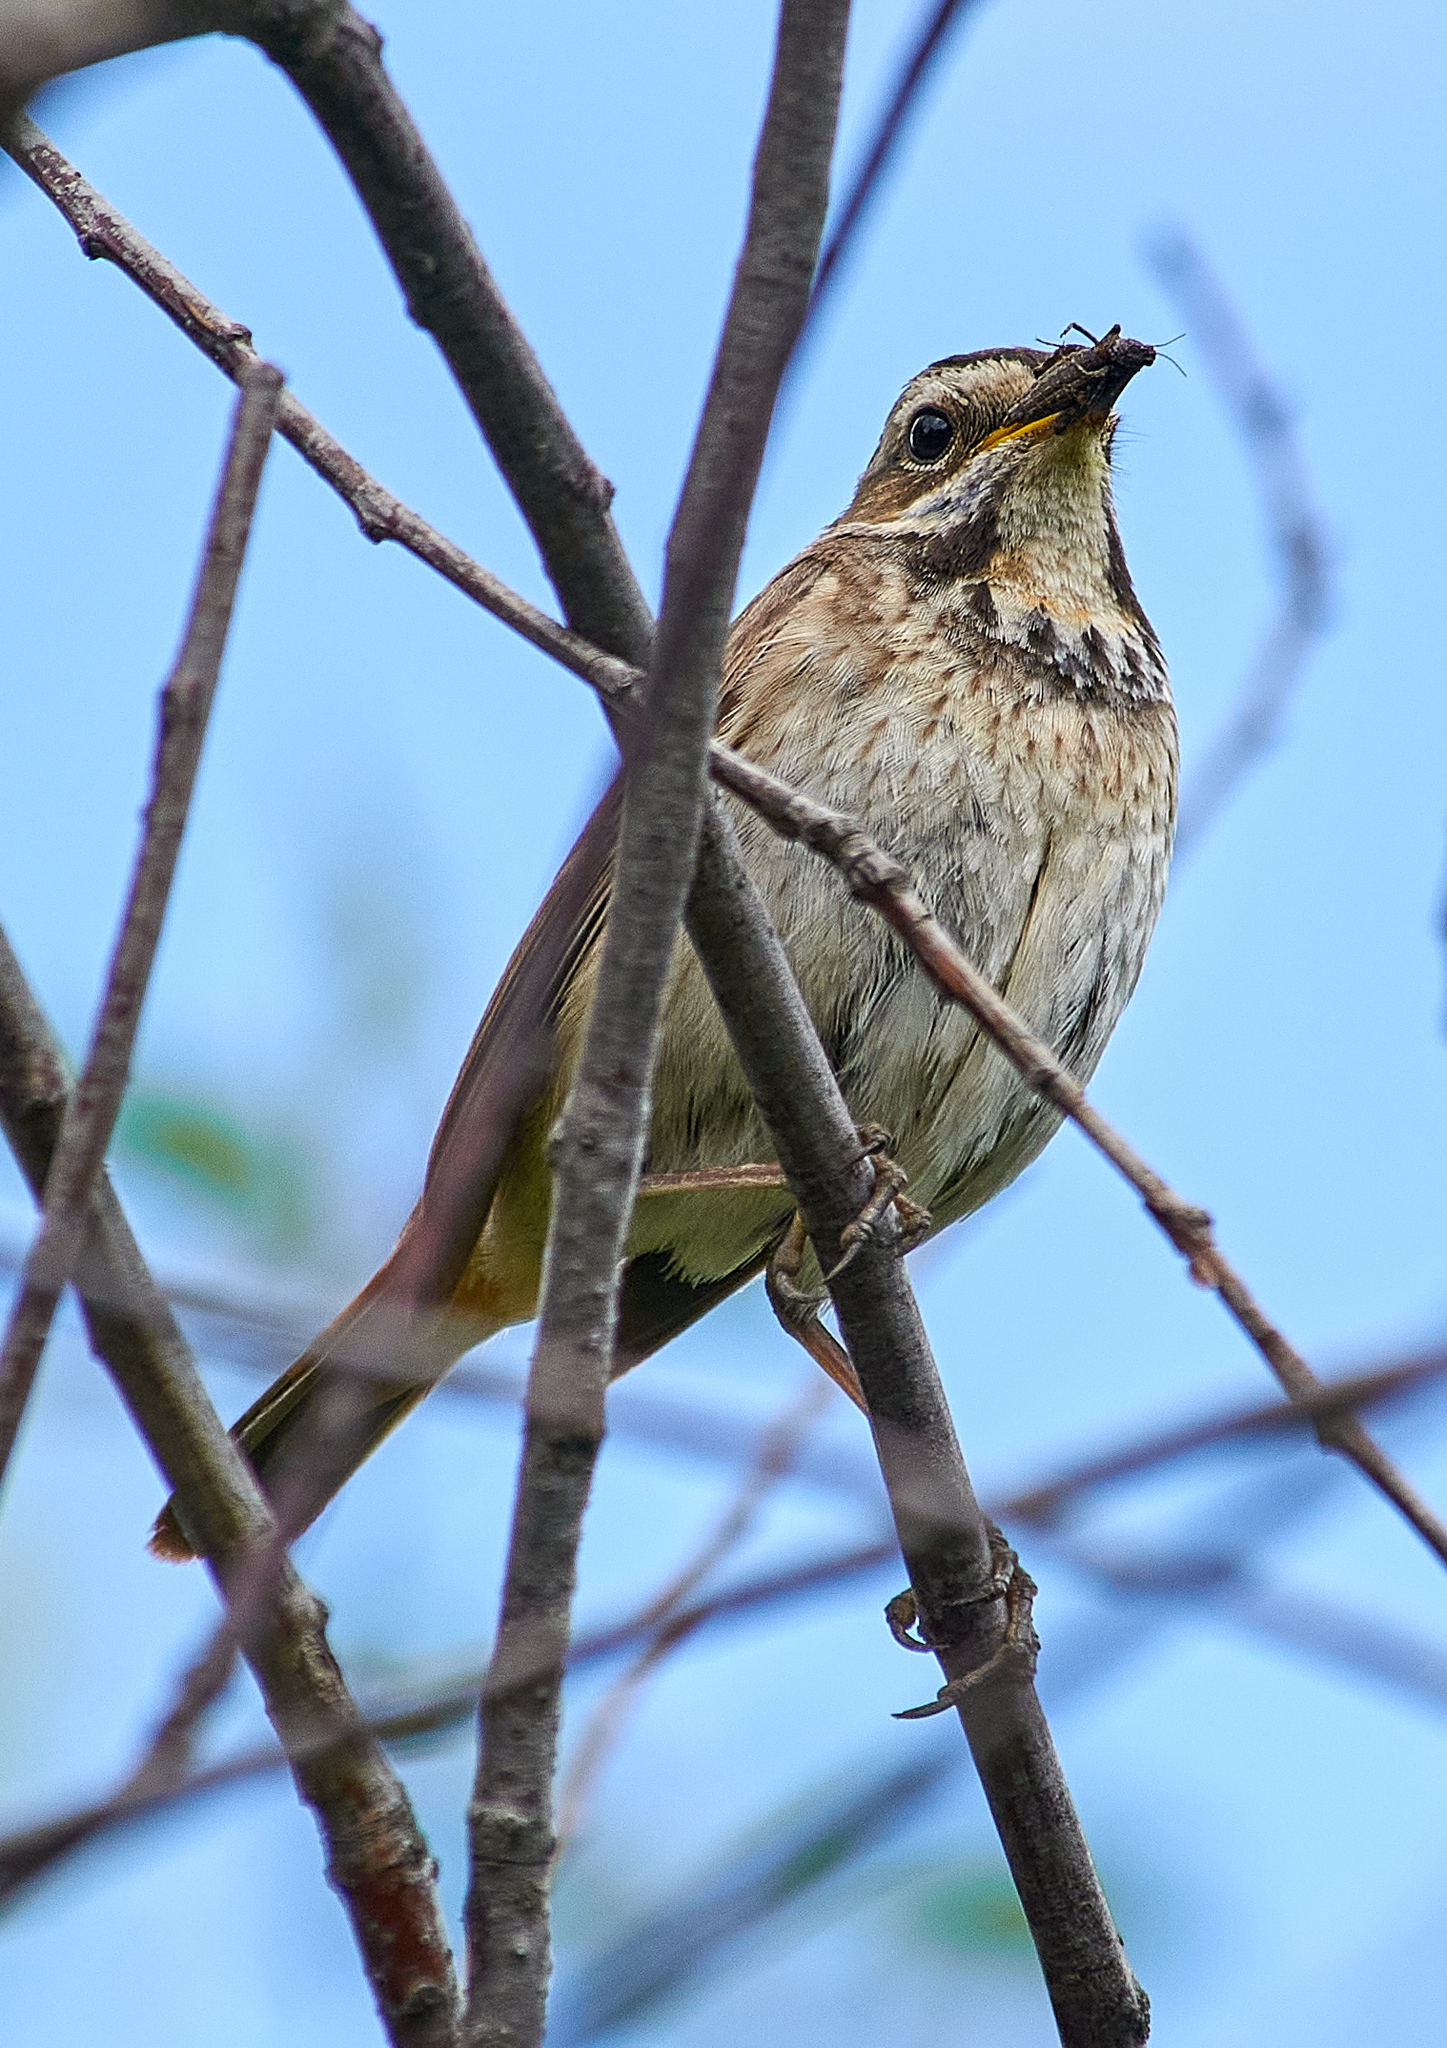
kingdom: Animalia
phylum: Chordata
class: Aves
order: Passeriformes
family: Muscicapidae
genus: Luscinia
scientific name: Luscinia svecica
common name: Bluethroat
